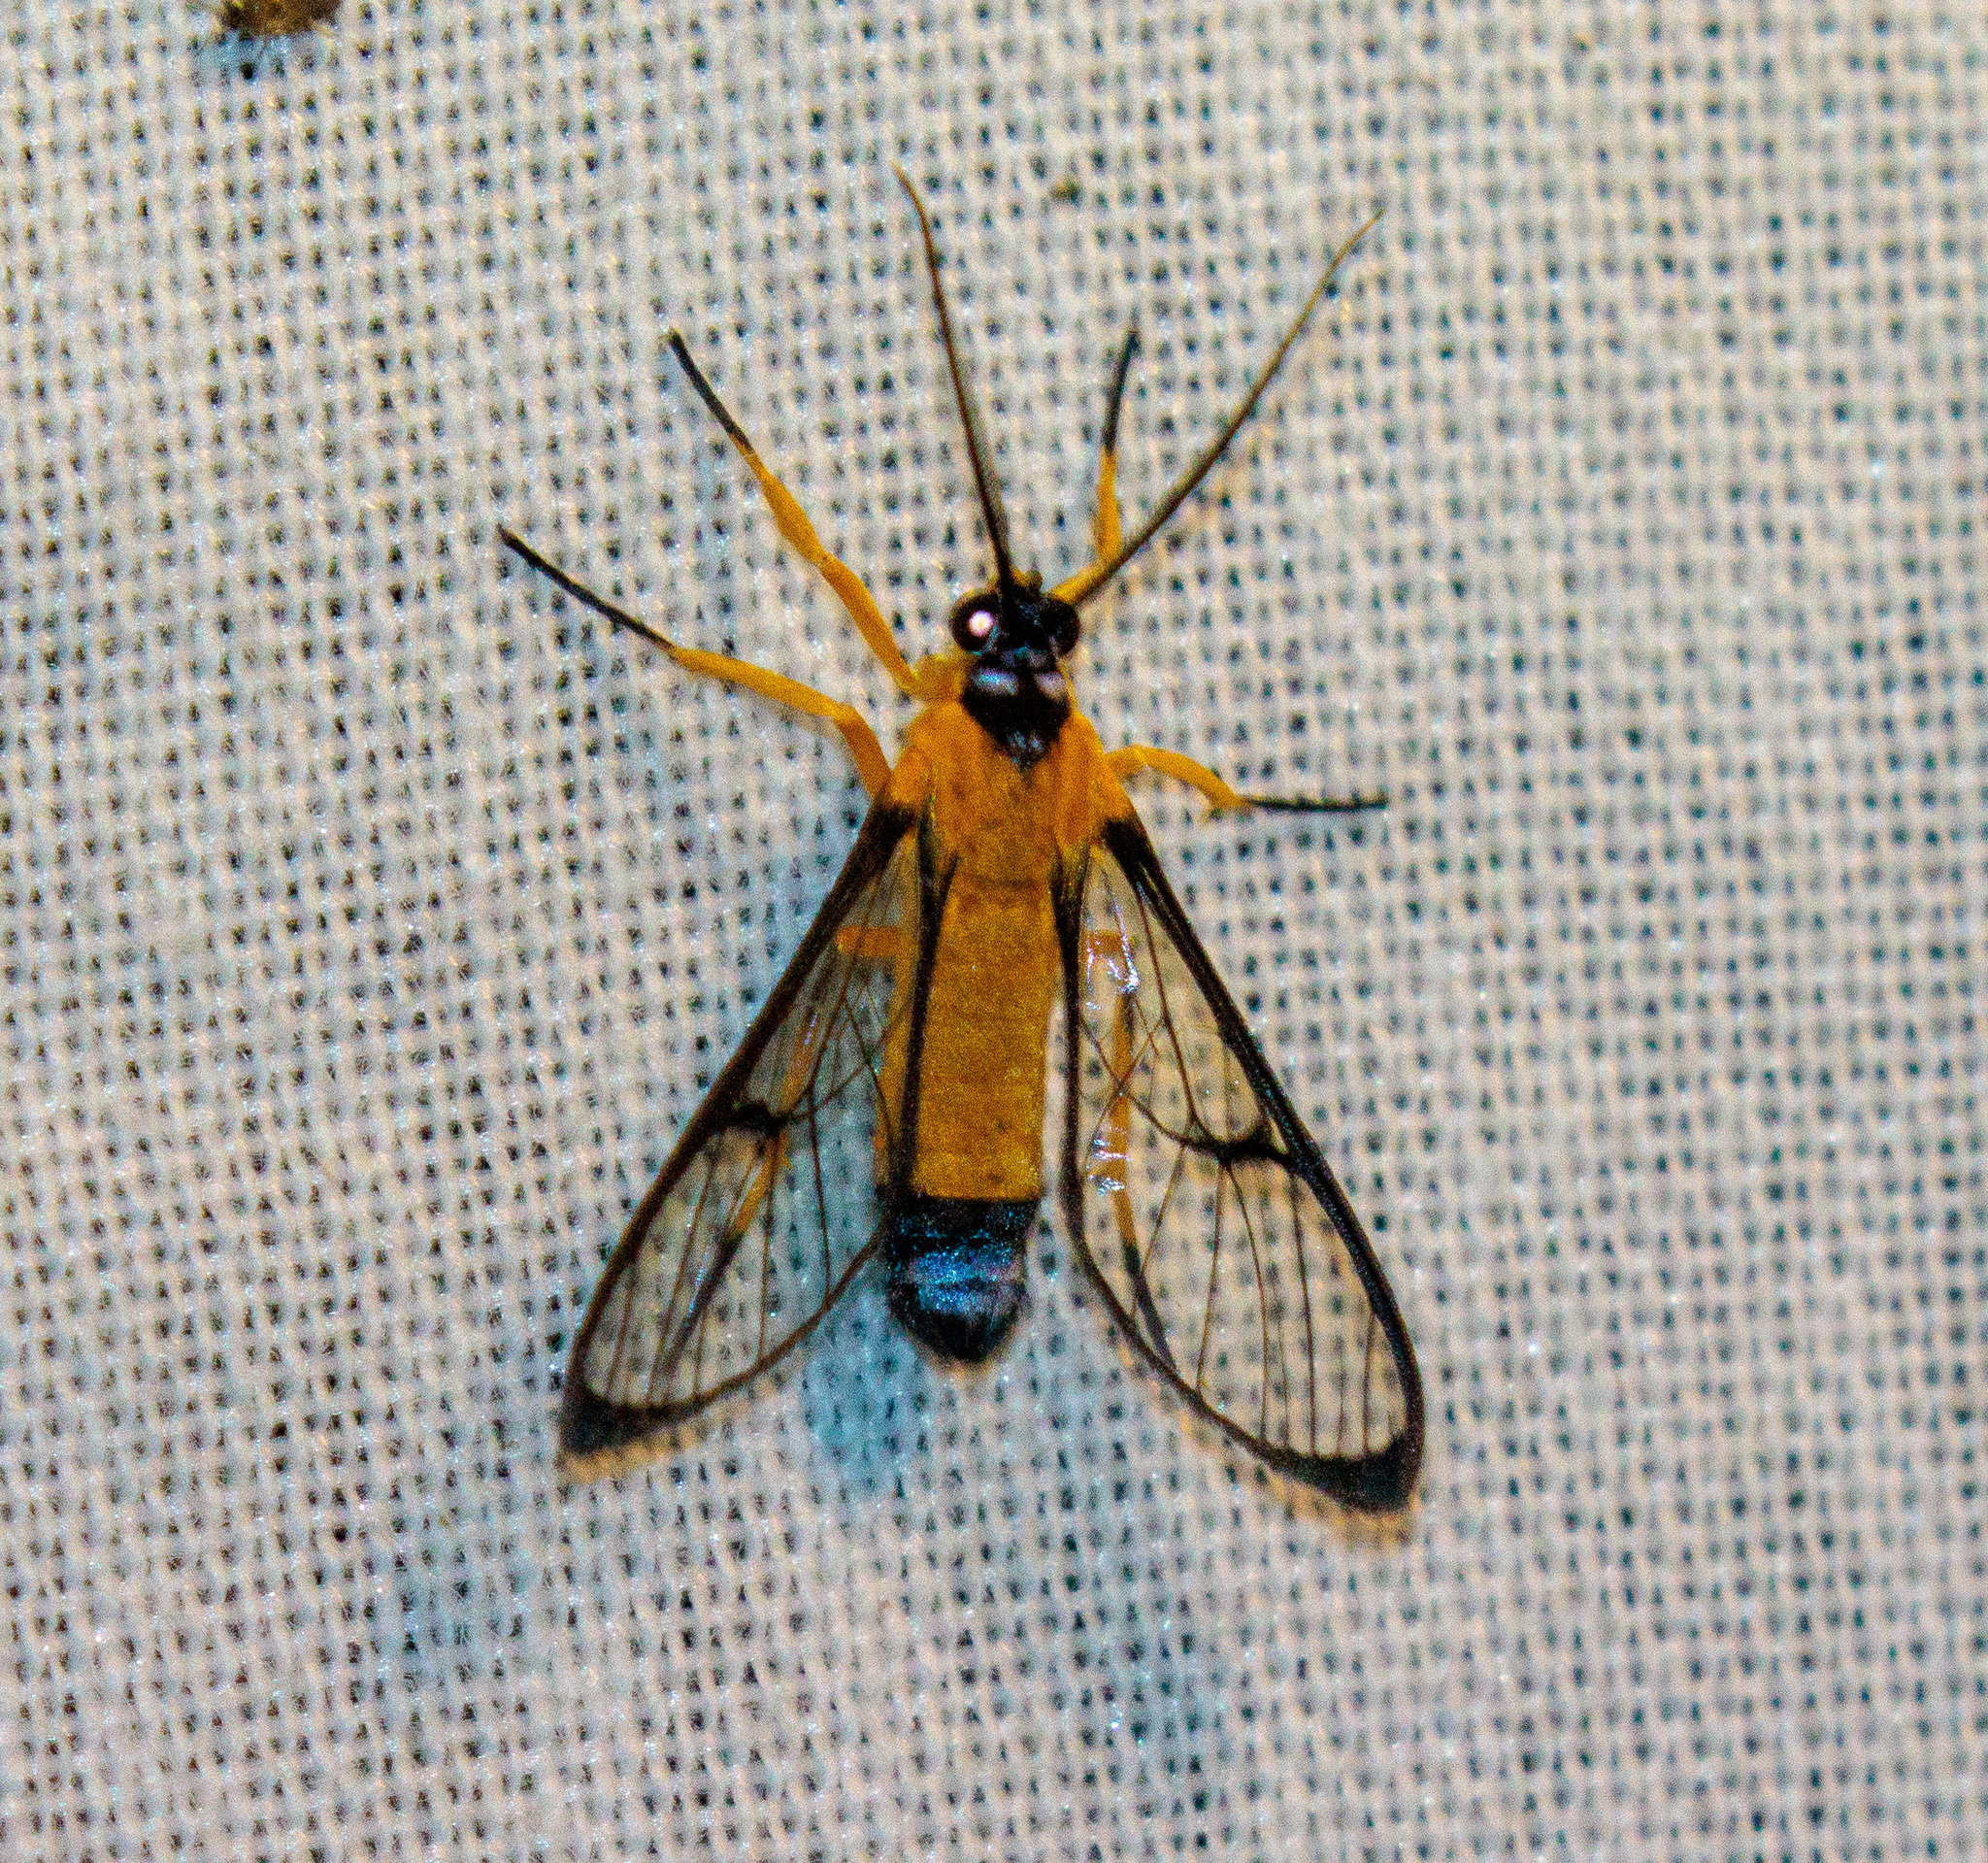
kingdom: Animalia
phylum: Arthropoda
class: Insecta
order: Lepidoptera
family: Erebidae
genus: Pseudosphex
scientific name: Pseudosphex sodalis
